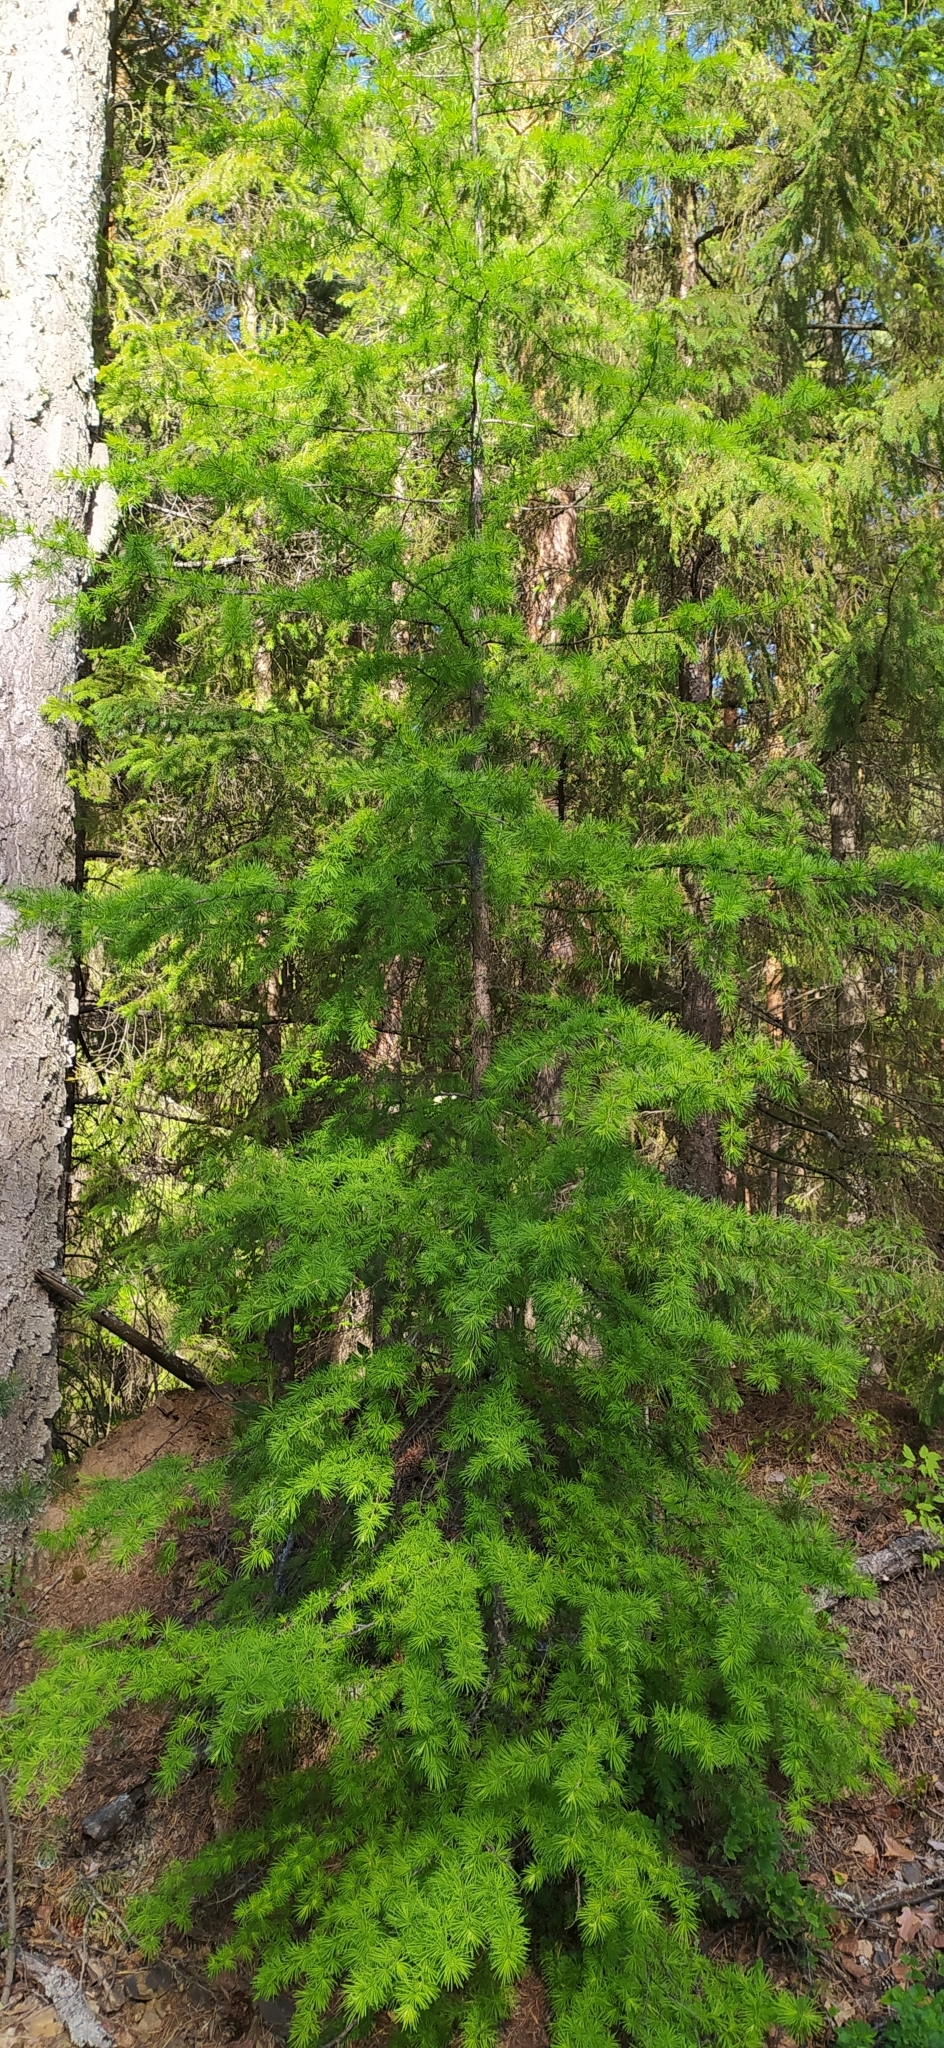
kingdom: Plantae
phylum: Tracheophyta
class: Pinopsida
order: Pinales
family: Pinaceae
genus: Larix
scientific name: Larix sibirica
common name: Siberian larch
